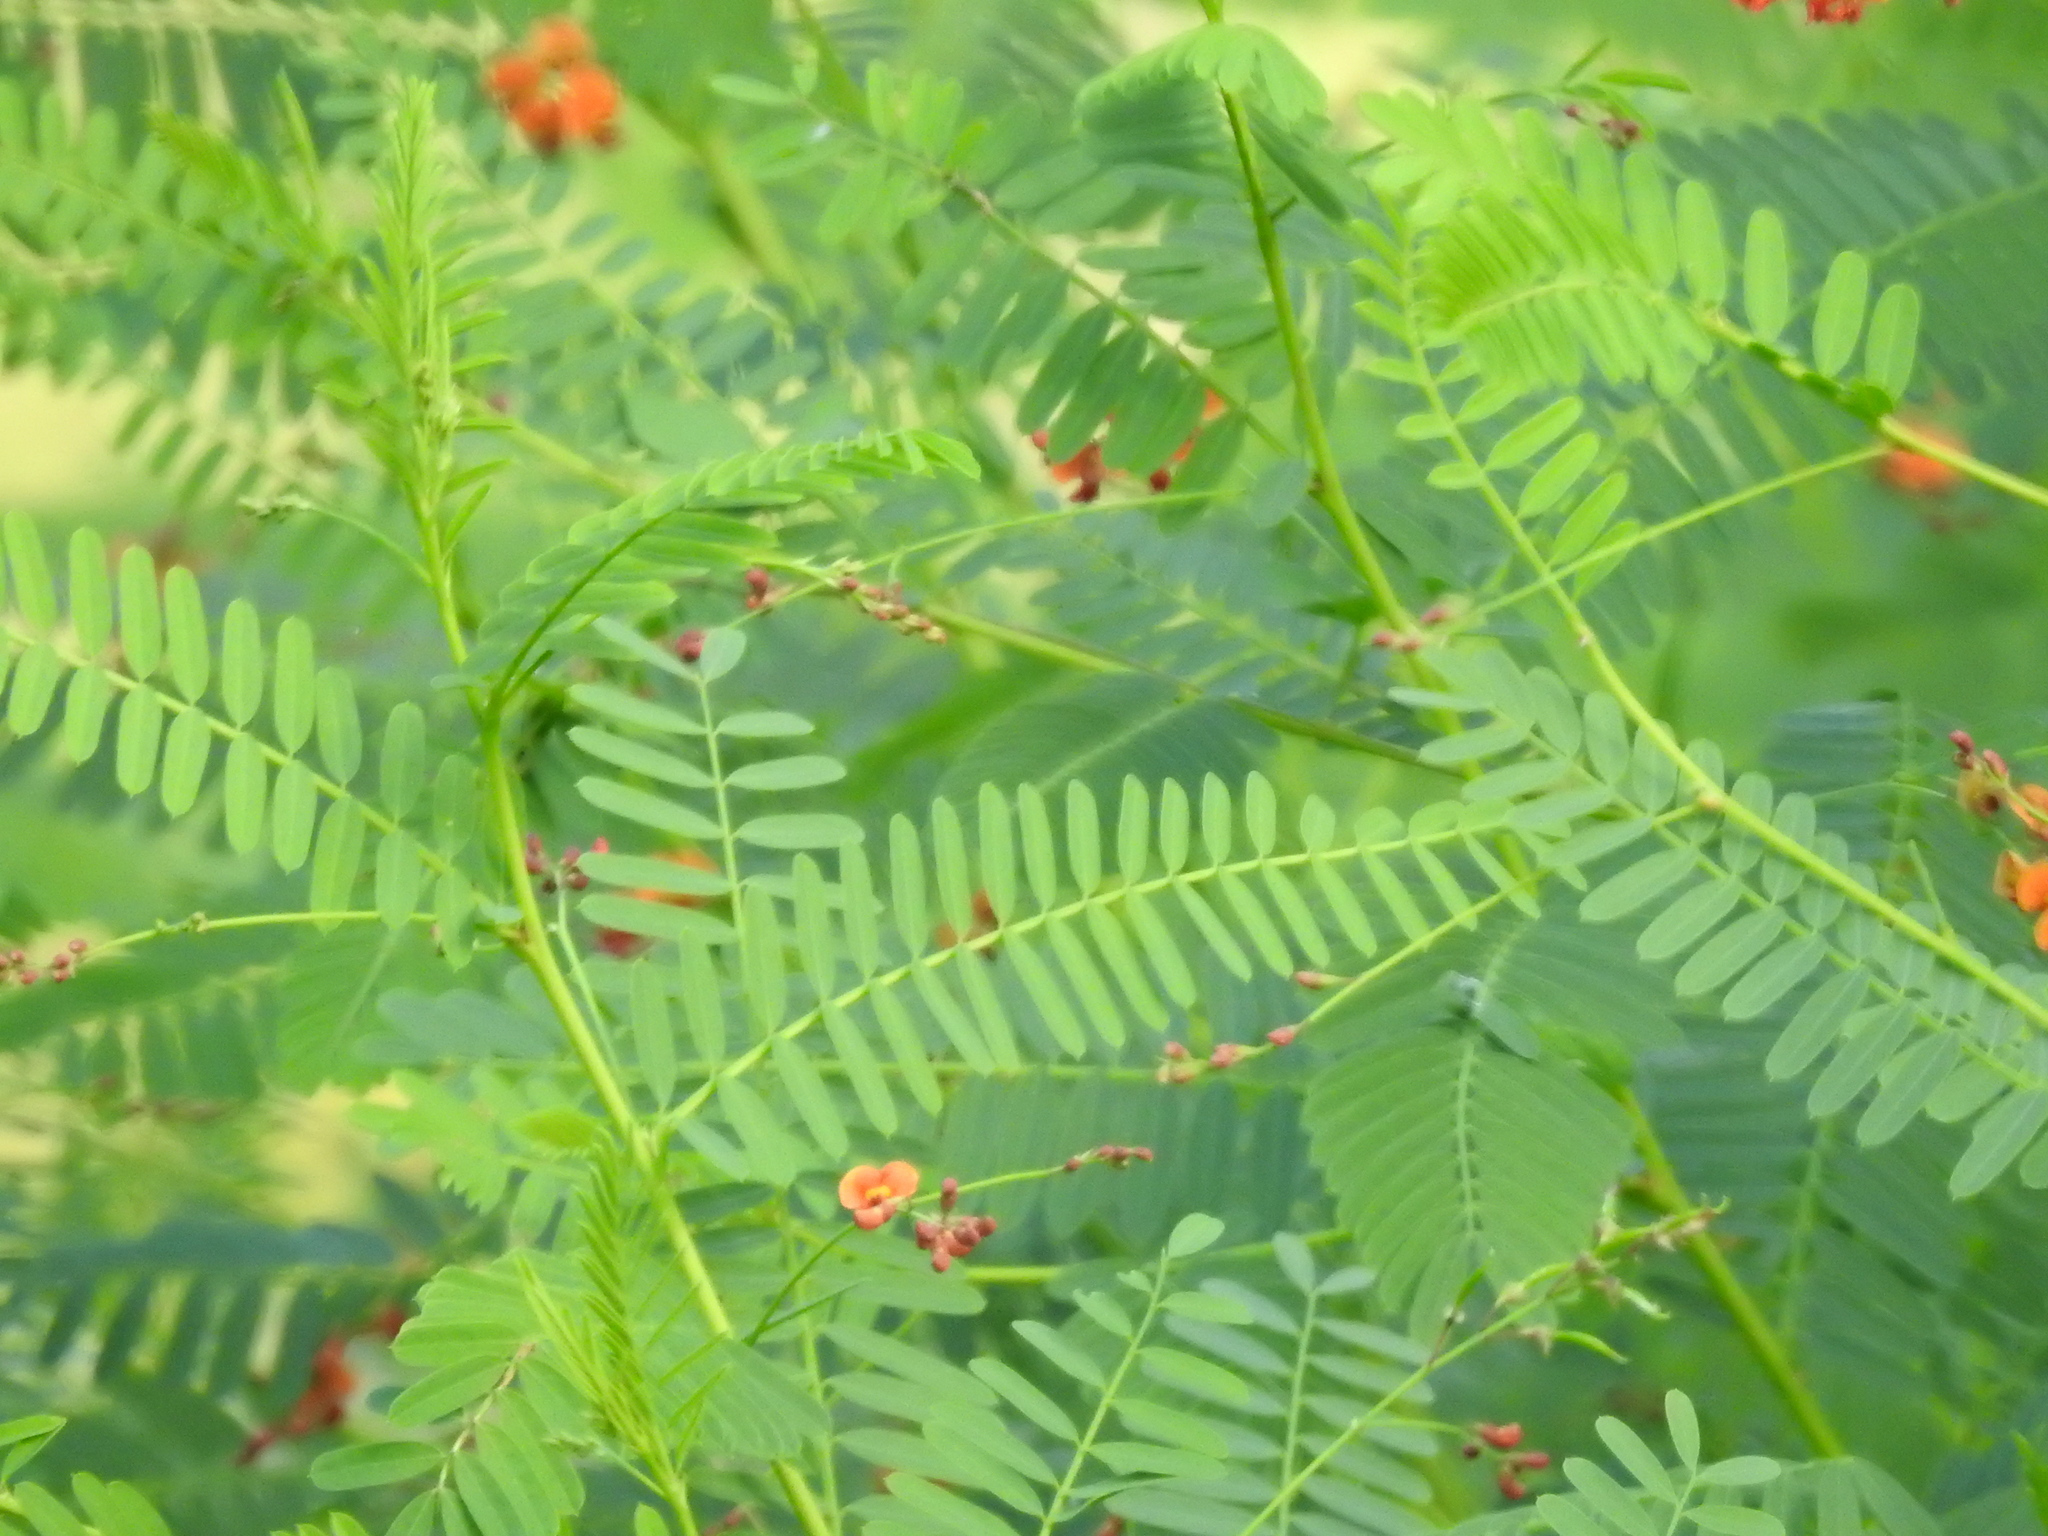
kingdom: Plantae
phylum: Tracheophyta
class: Magnoliopsida
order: Fabales
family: Fabaceae
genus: Sesbania
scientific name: Sesbania vesicaria
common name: Bagpod
